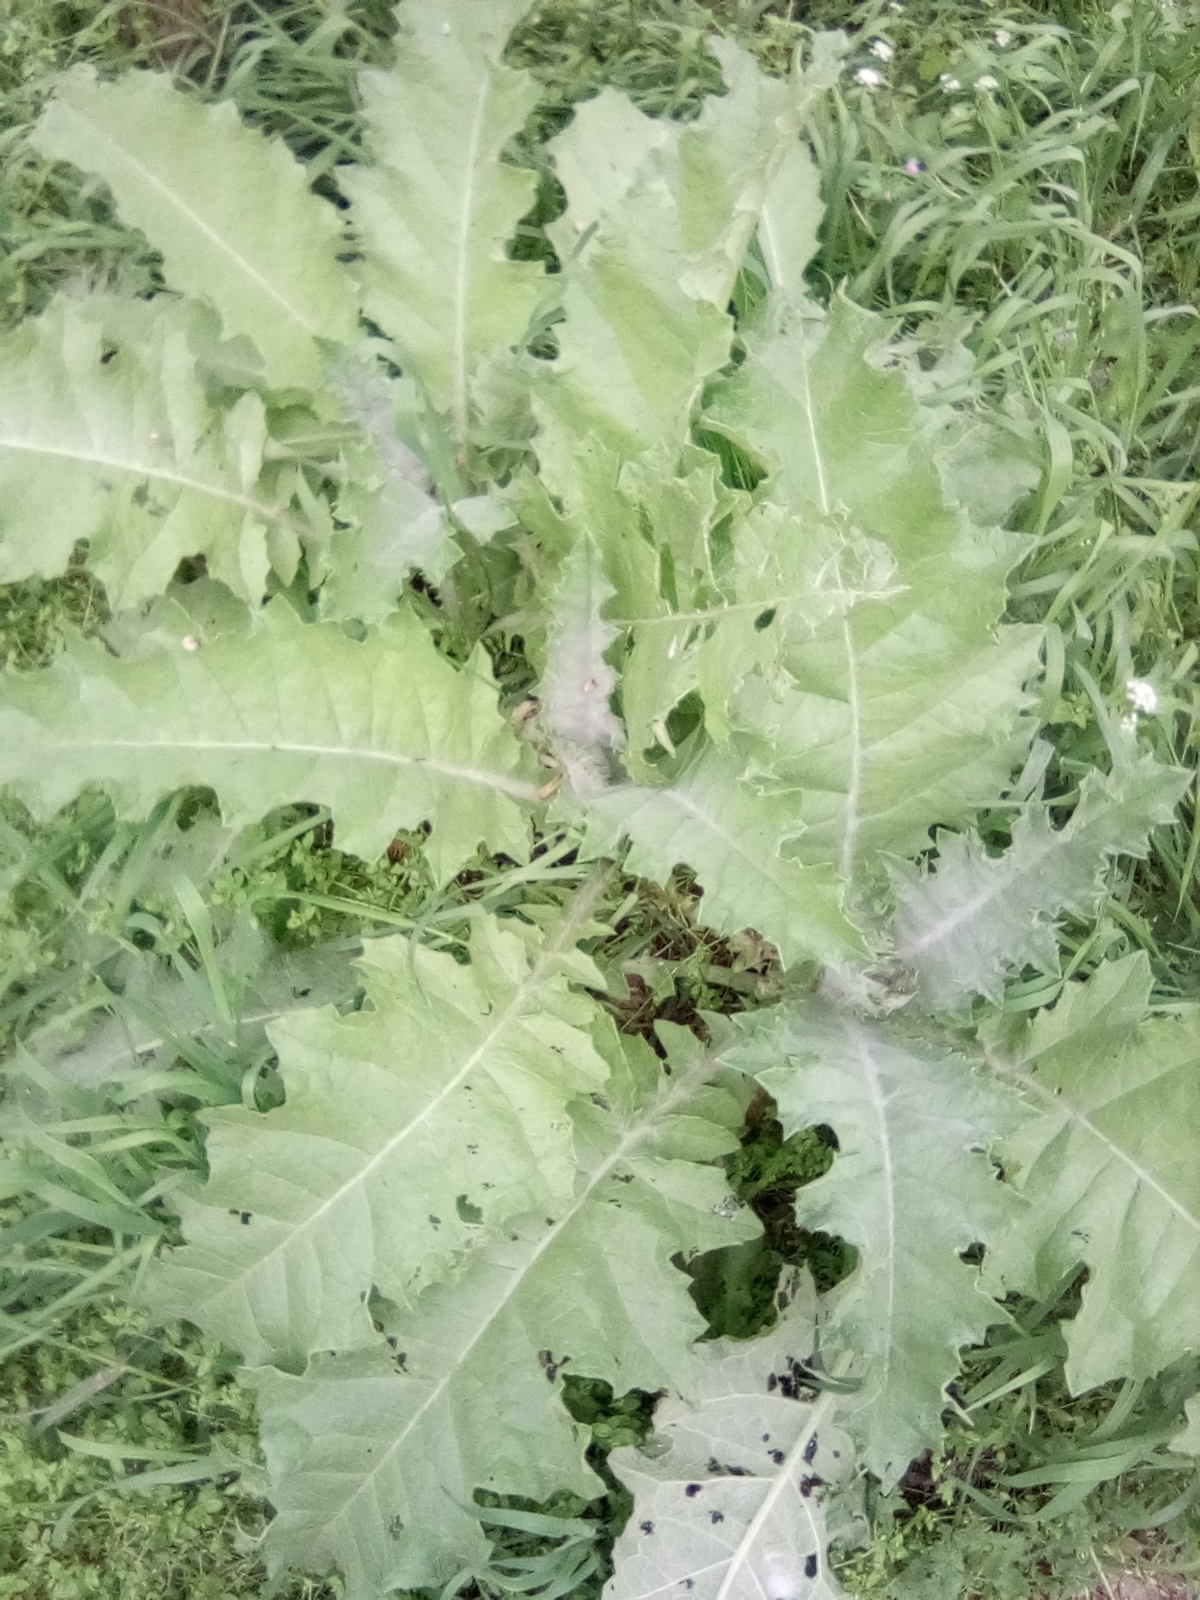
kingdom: Plantae
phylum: Tracheophyta
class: Magnoliopsida
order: Asterales
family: Asteraceae
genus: Onopordum
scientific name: Onopordum acanthium
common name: Scotch thistle
